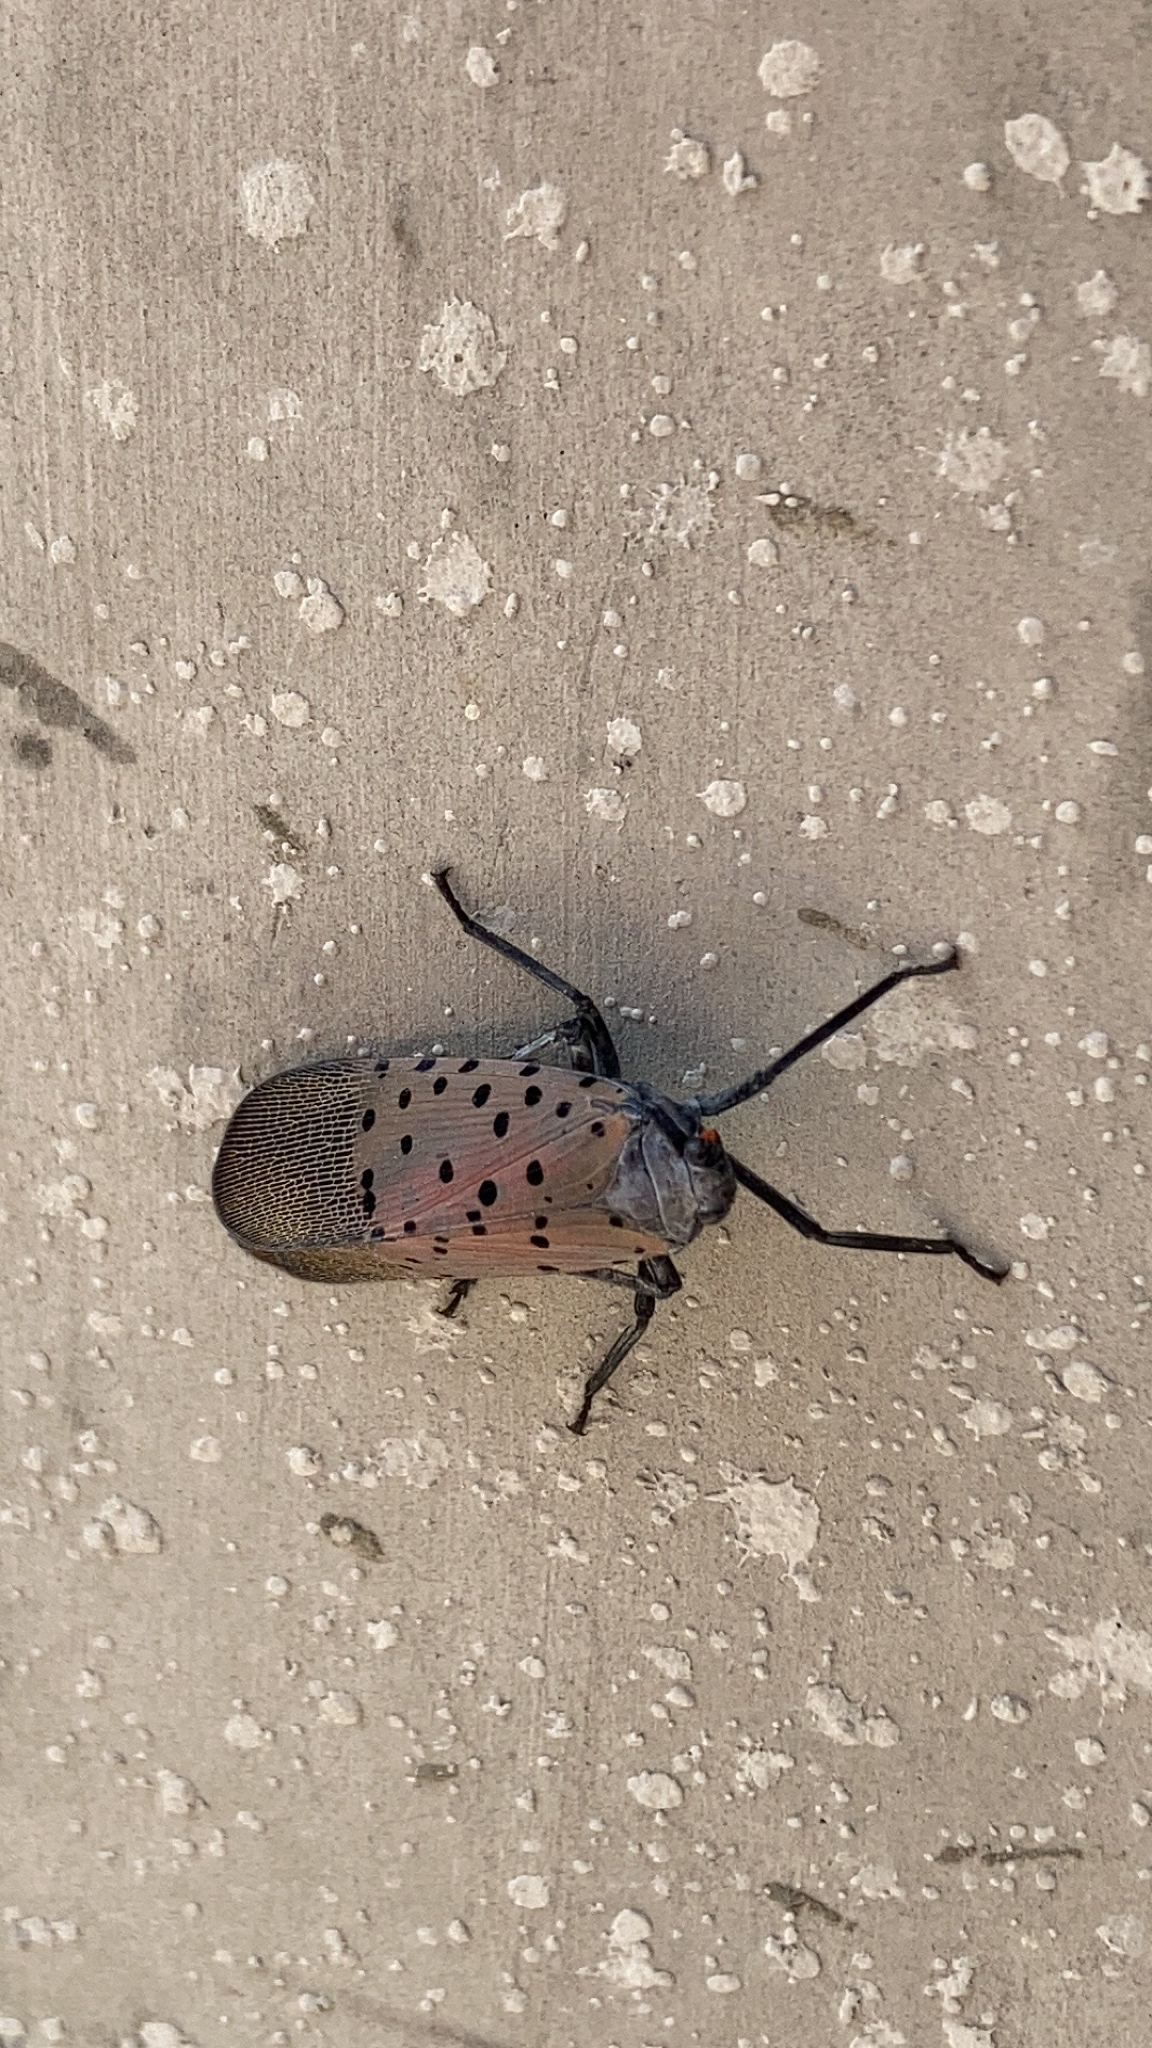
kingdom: Animalia
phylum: Arthropoda
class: Insecta
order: Hemiptera
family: Fulgoridae
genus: Lycorma
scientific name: Lycorma delicatula
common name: Spotted lanternfly
